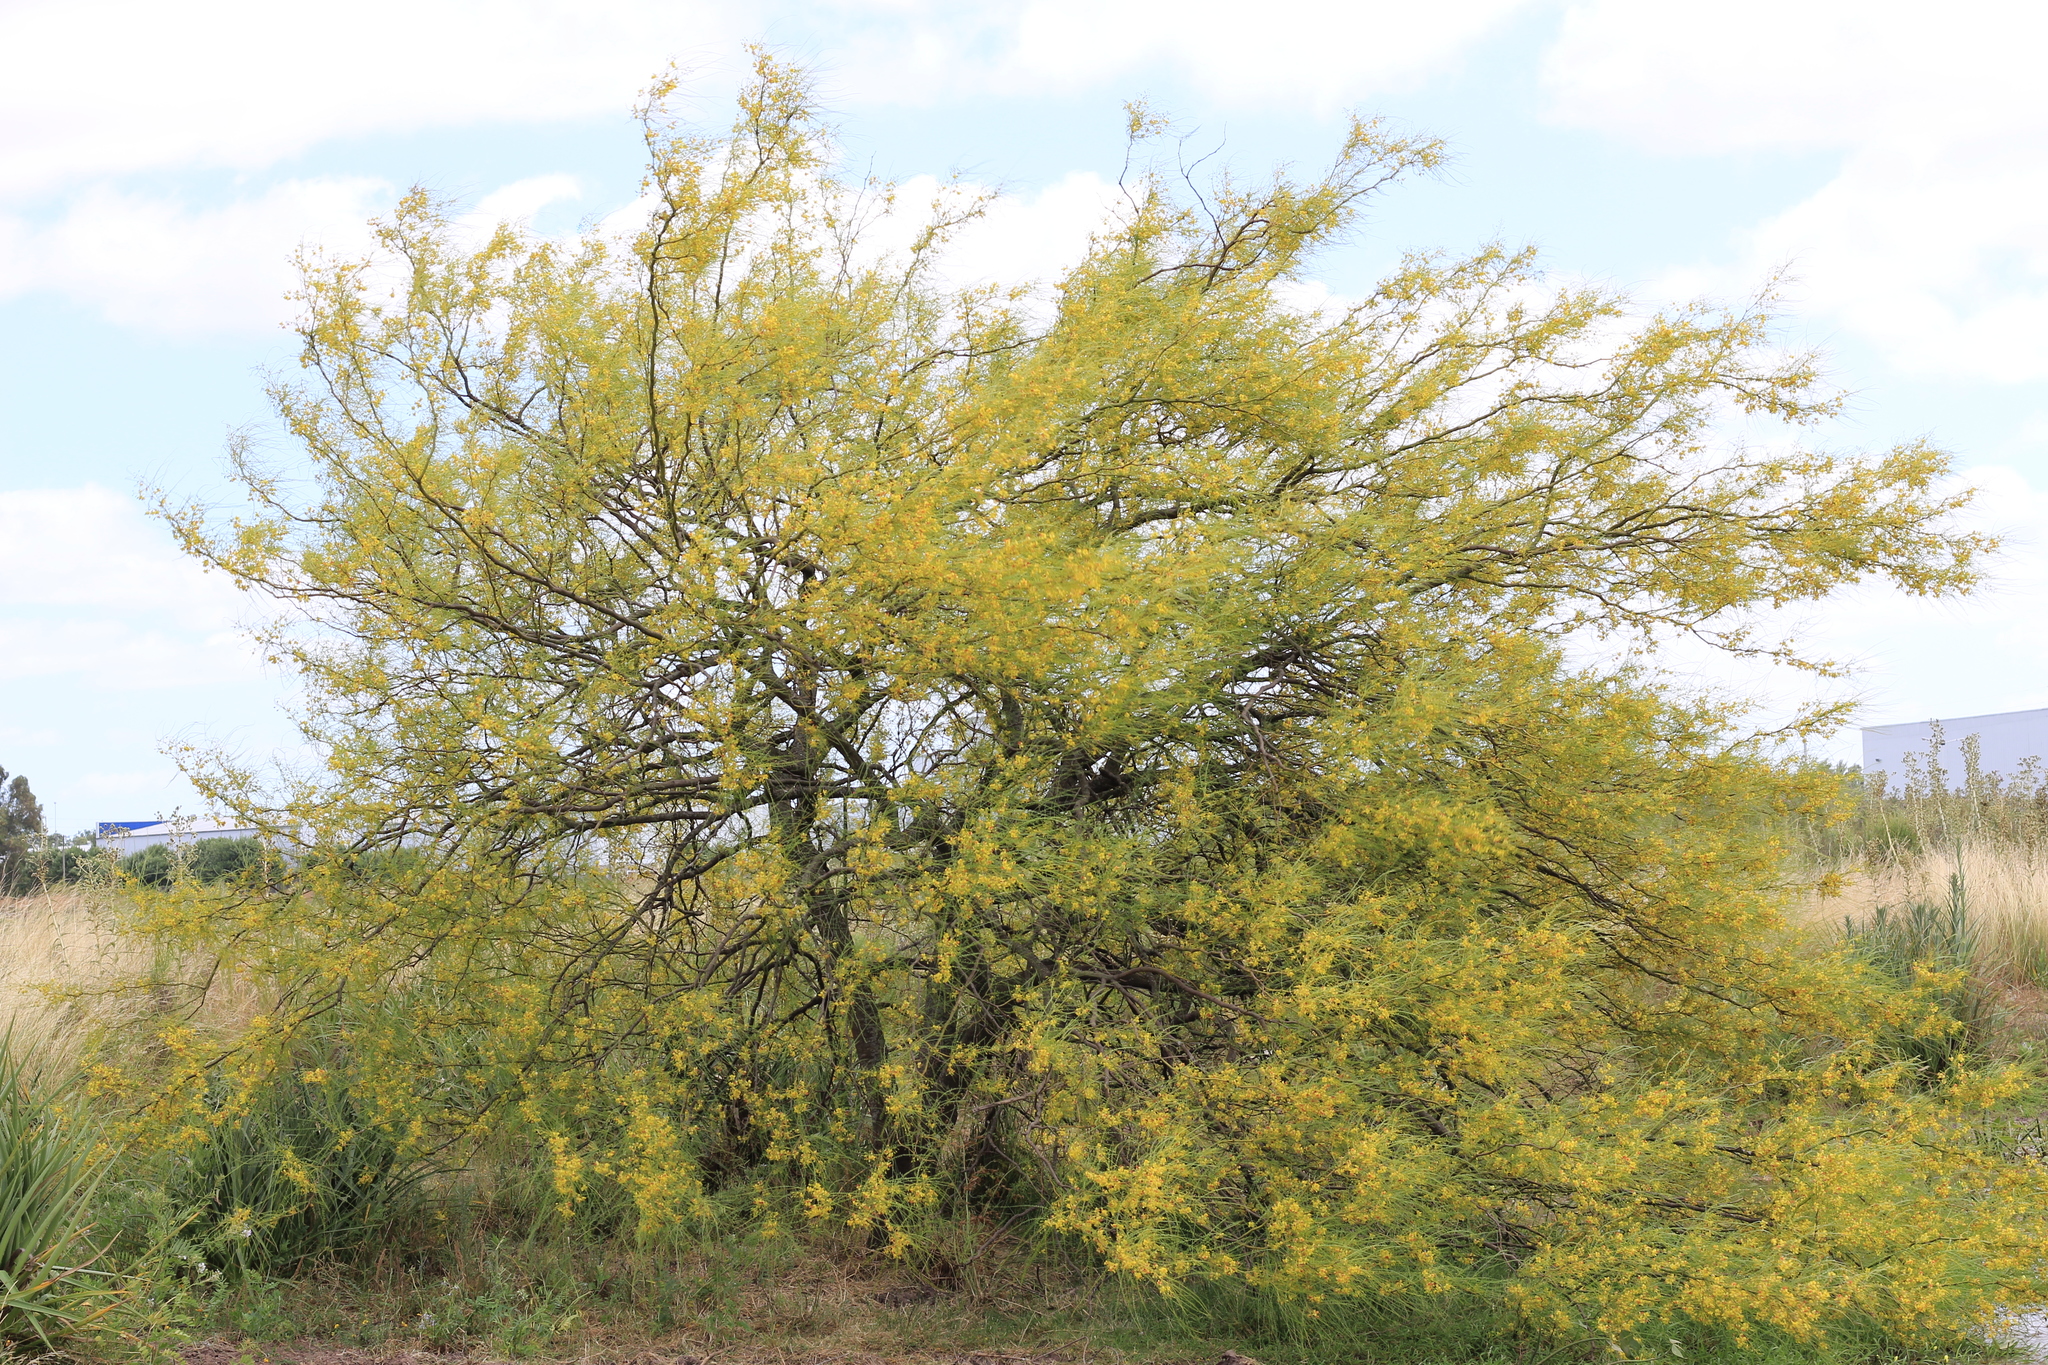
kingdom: Plantae
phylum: Tracheophyta
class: Magnoliopsida
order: Fabales
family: Fabaceae
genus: Parkinsonia
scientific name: Parkinsonia aculeata
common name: Jerusalem thorn
